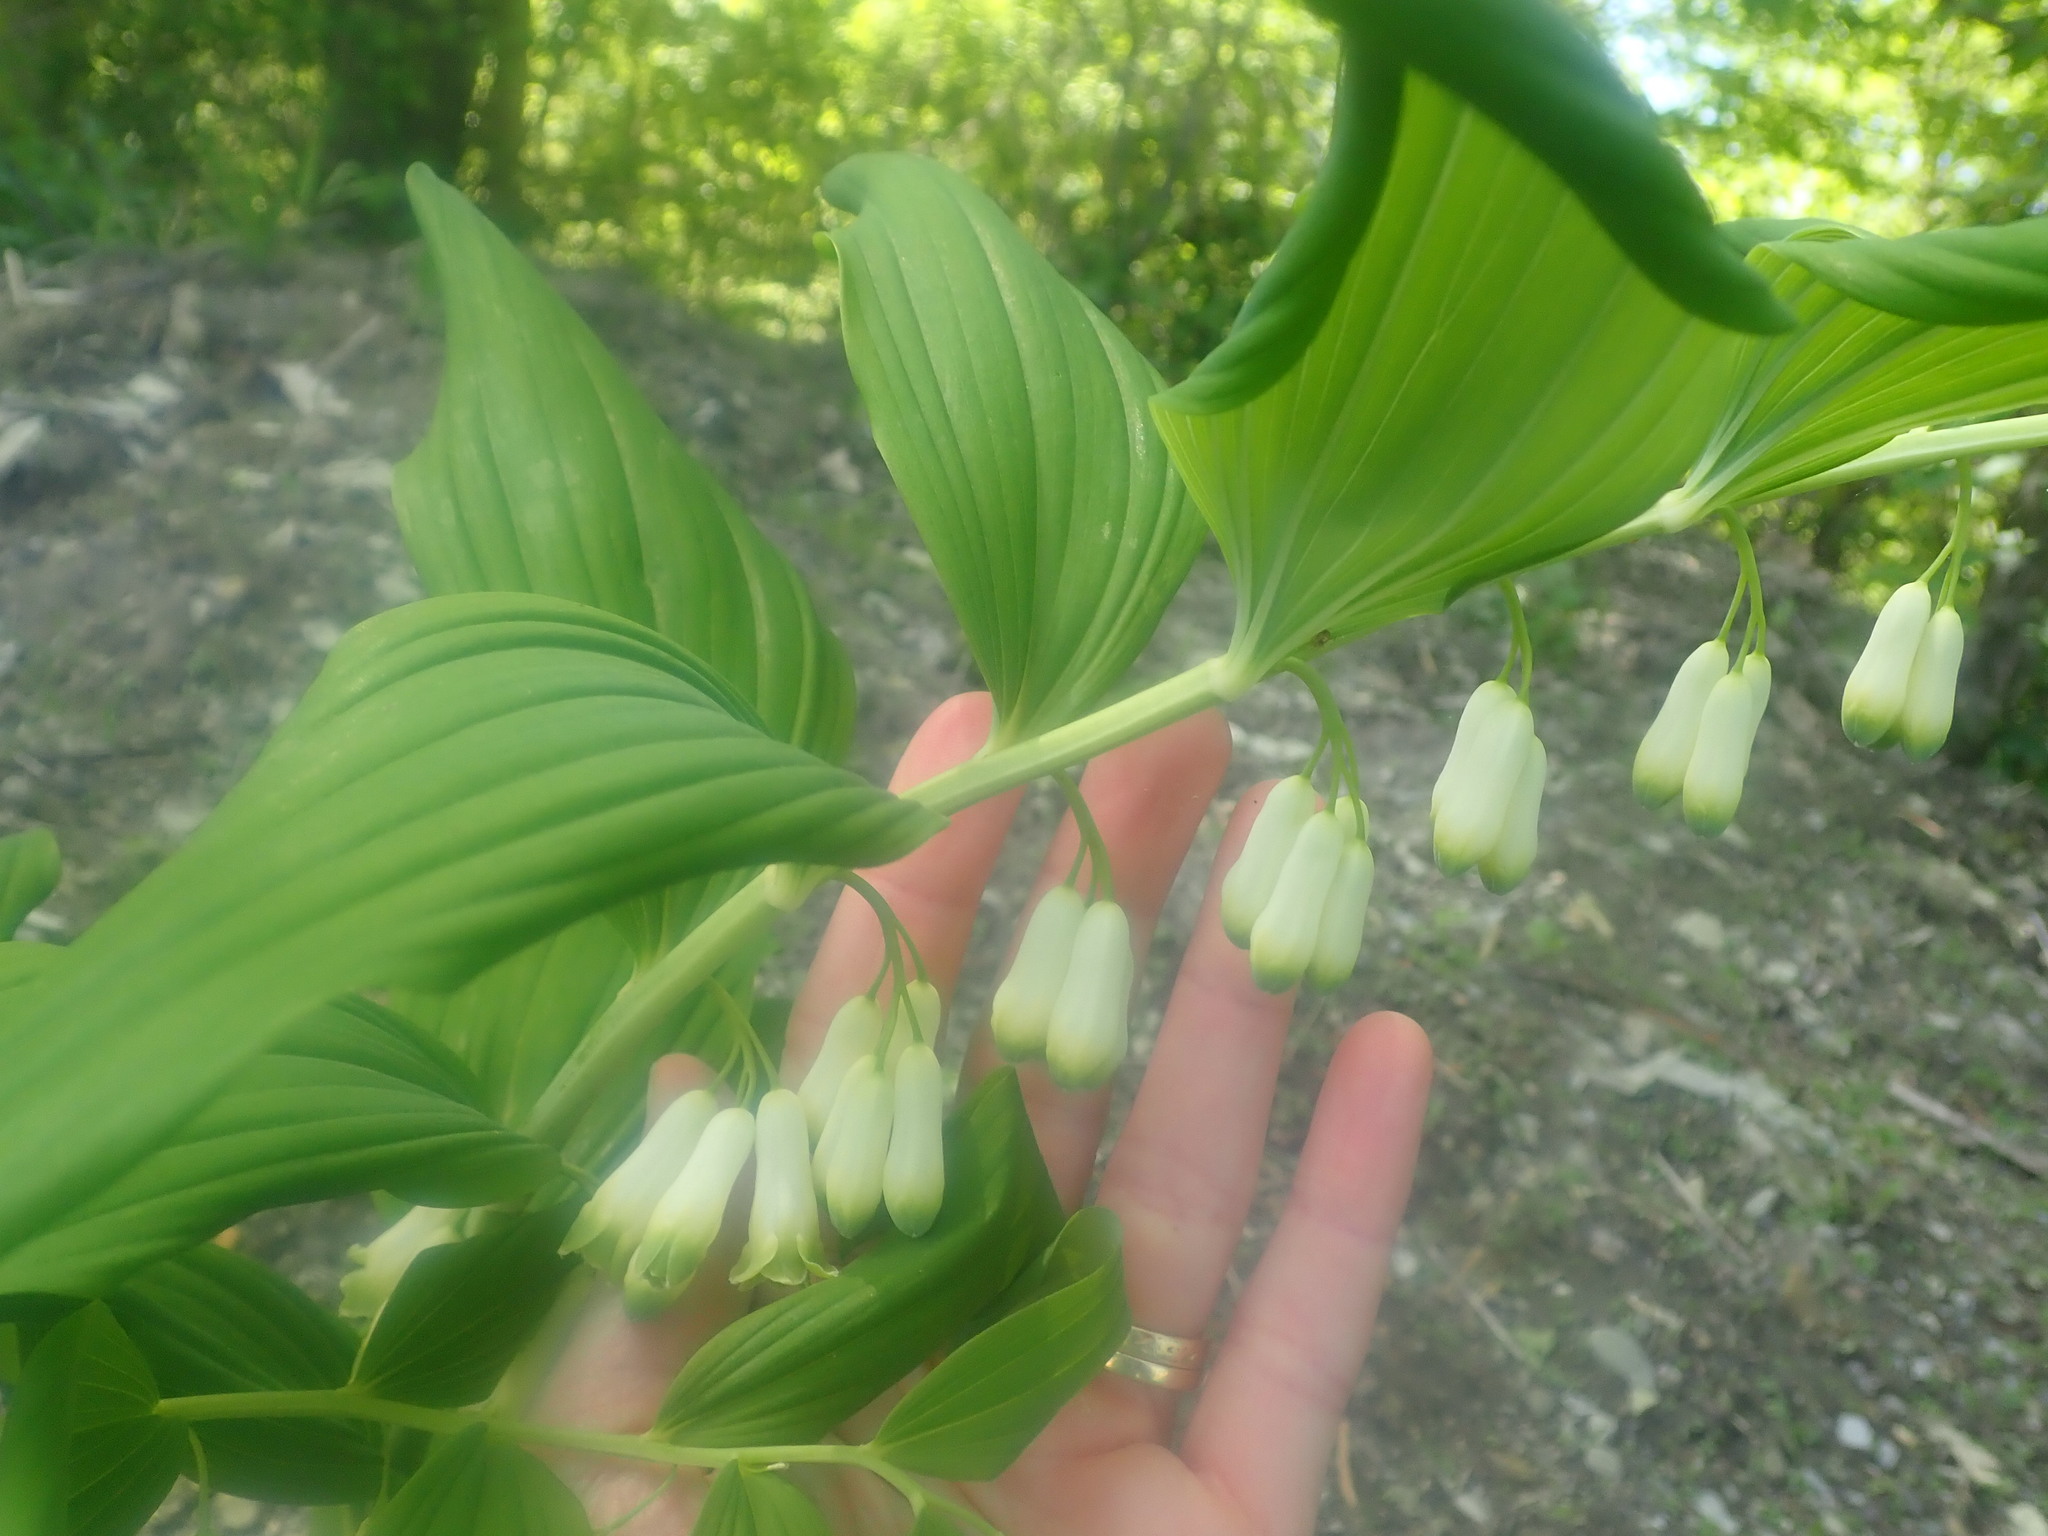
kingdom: Plantae
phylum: Tracheophyta
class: Liliopsida
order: Asparagales
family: Asparagaceae
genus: Polygonatum
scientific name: Polygonatum multiflorum
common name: Solomon's-seal
